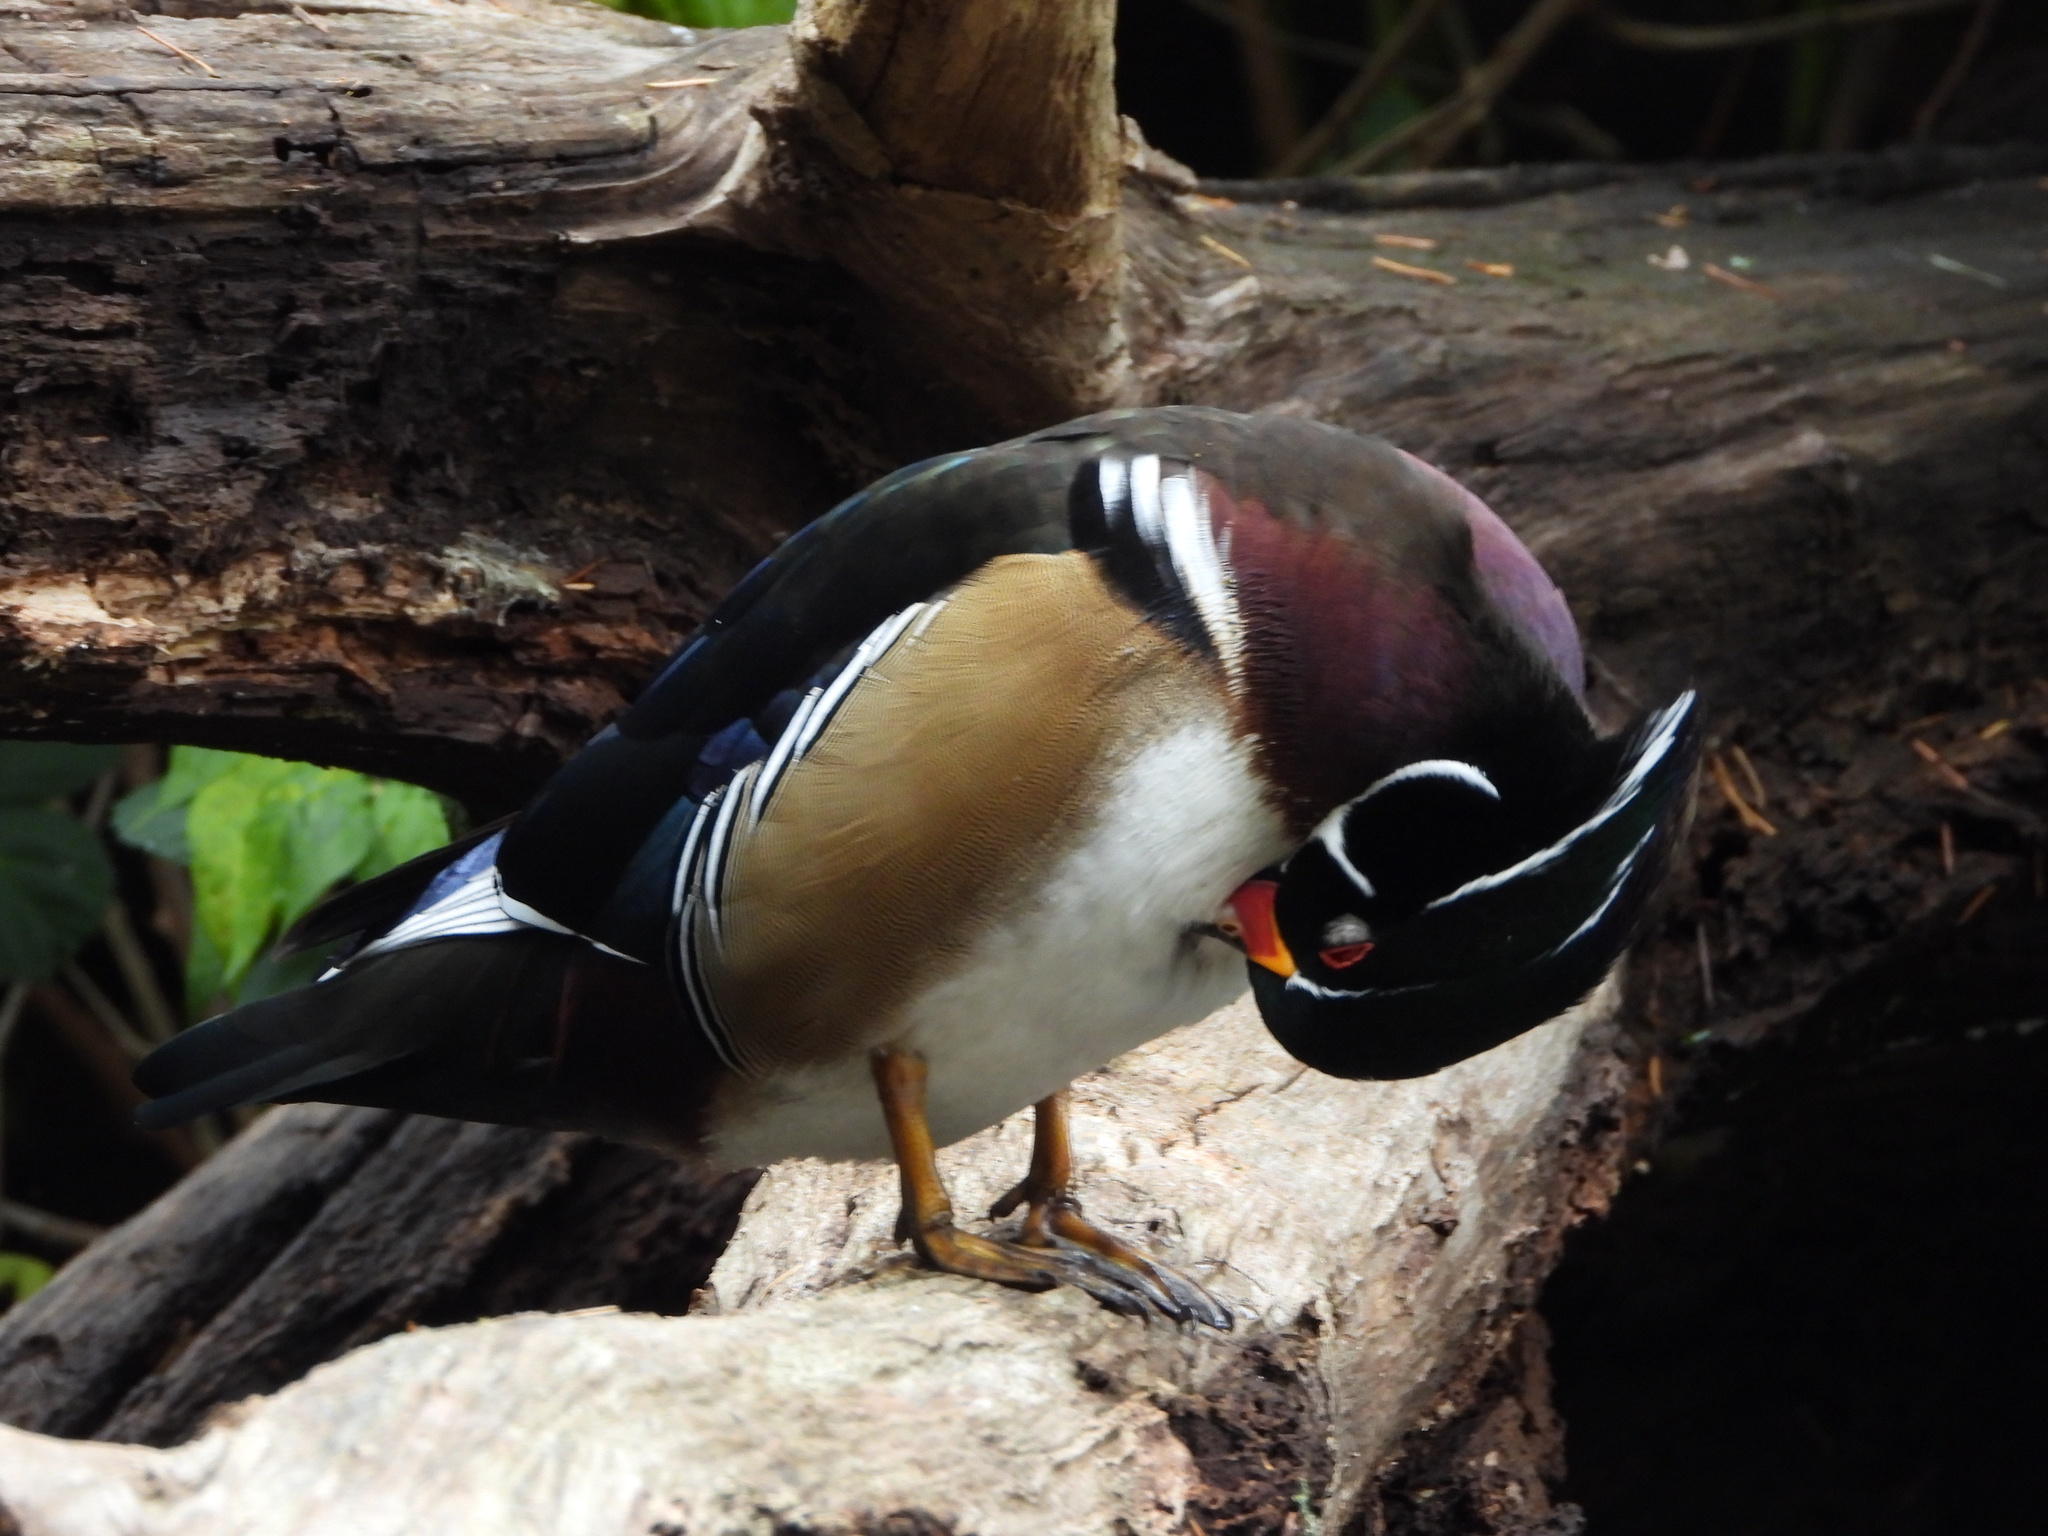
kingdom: Animalia
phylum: Chordata
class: Aves
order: Anseriformes
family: Anatidae
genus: Aix
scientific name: Aix sponsa
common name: Wood duck
